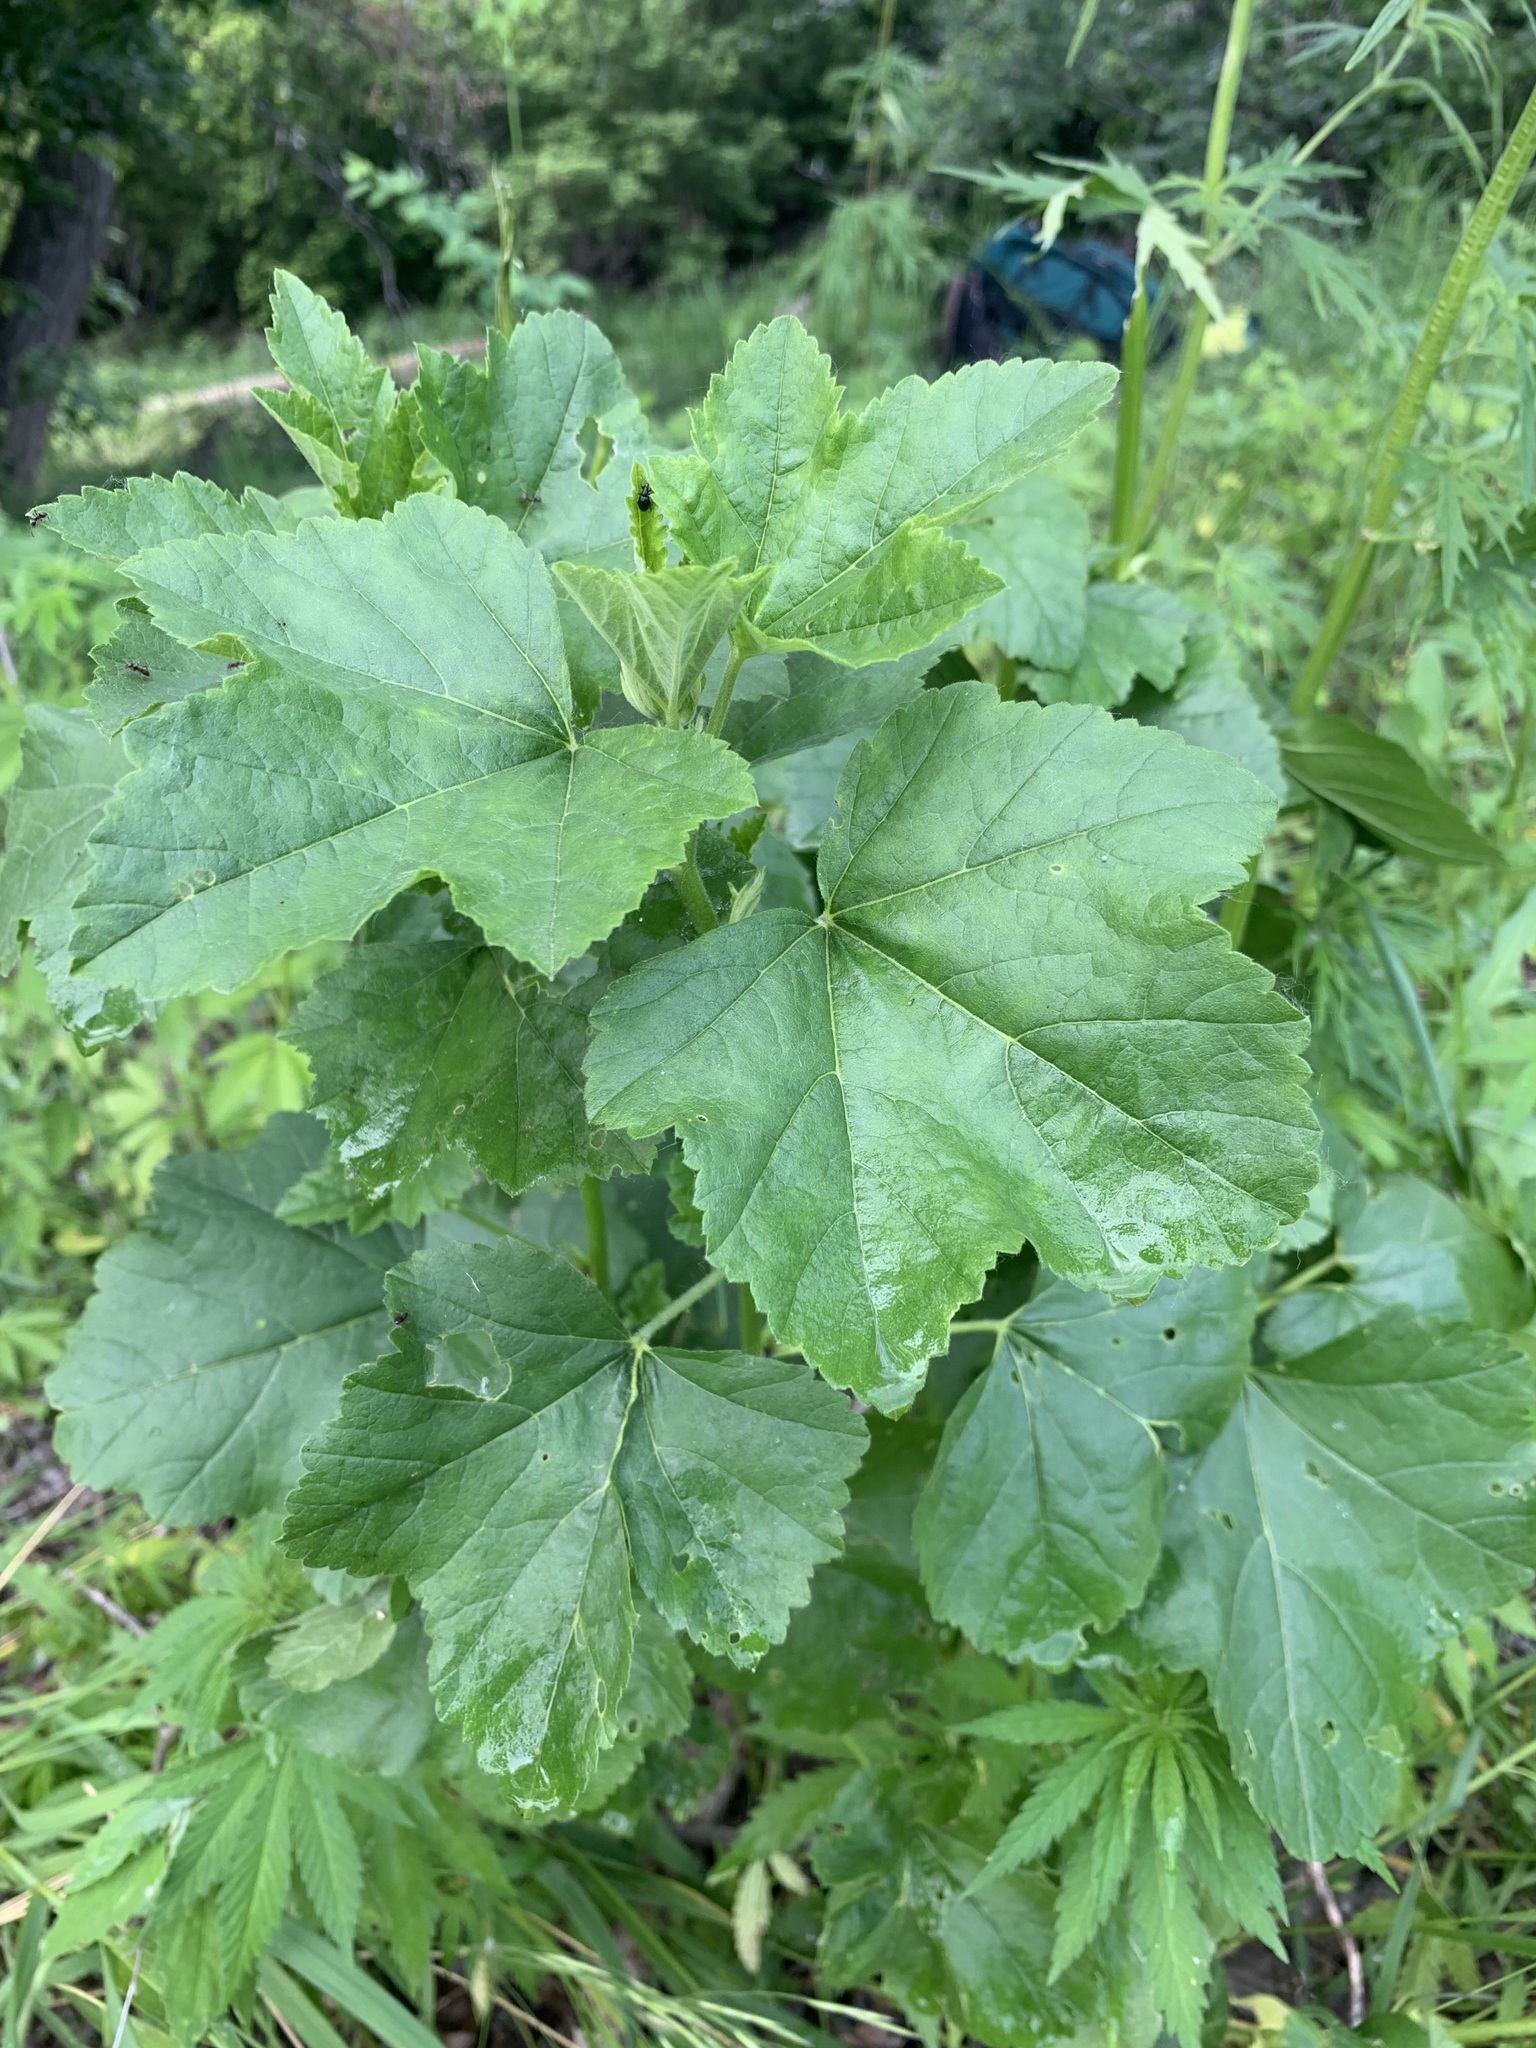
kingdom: Plantae
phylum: Tracheophyta
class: Magnoliopsida
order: Malvales
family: Malvaceae
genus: Malva
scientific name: Malva thuringiaca
